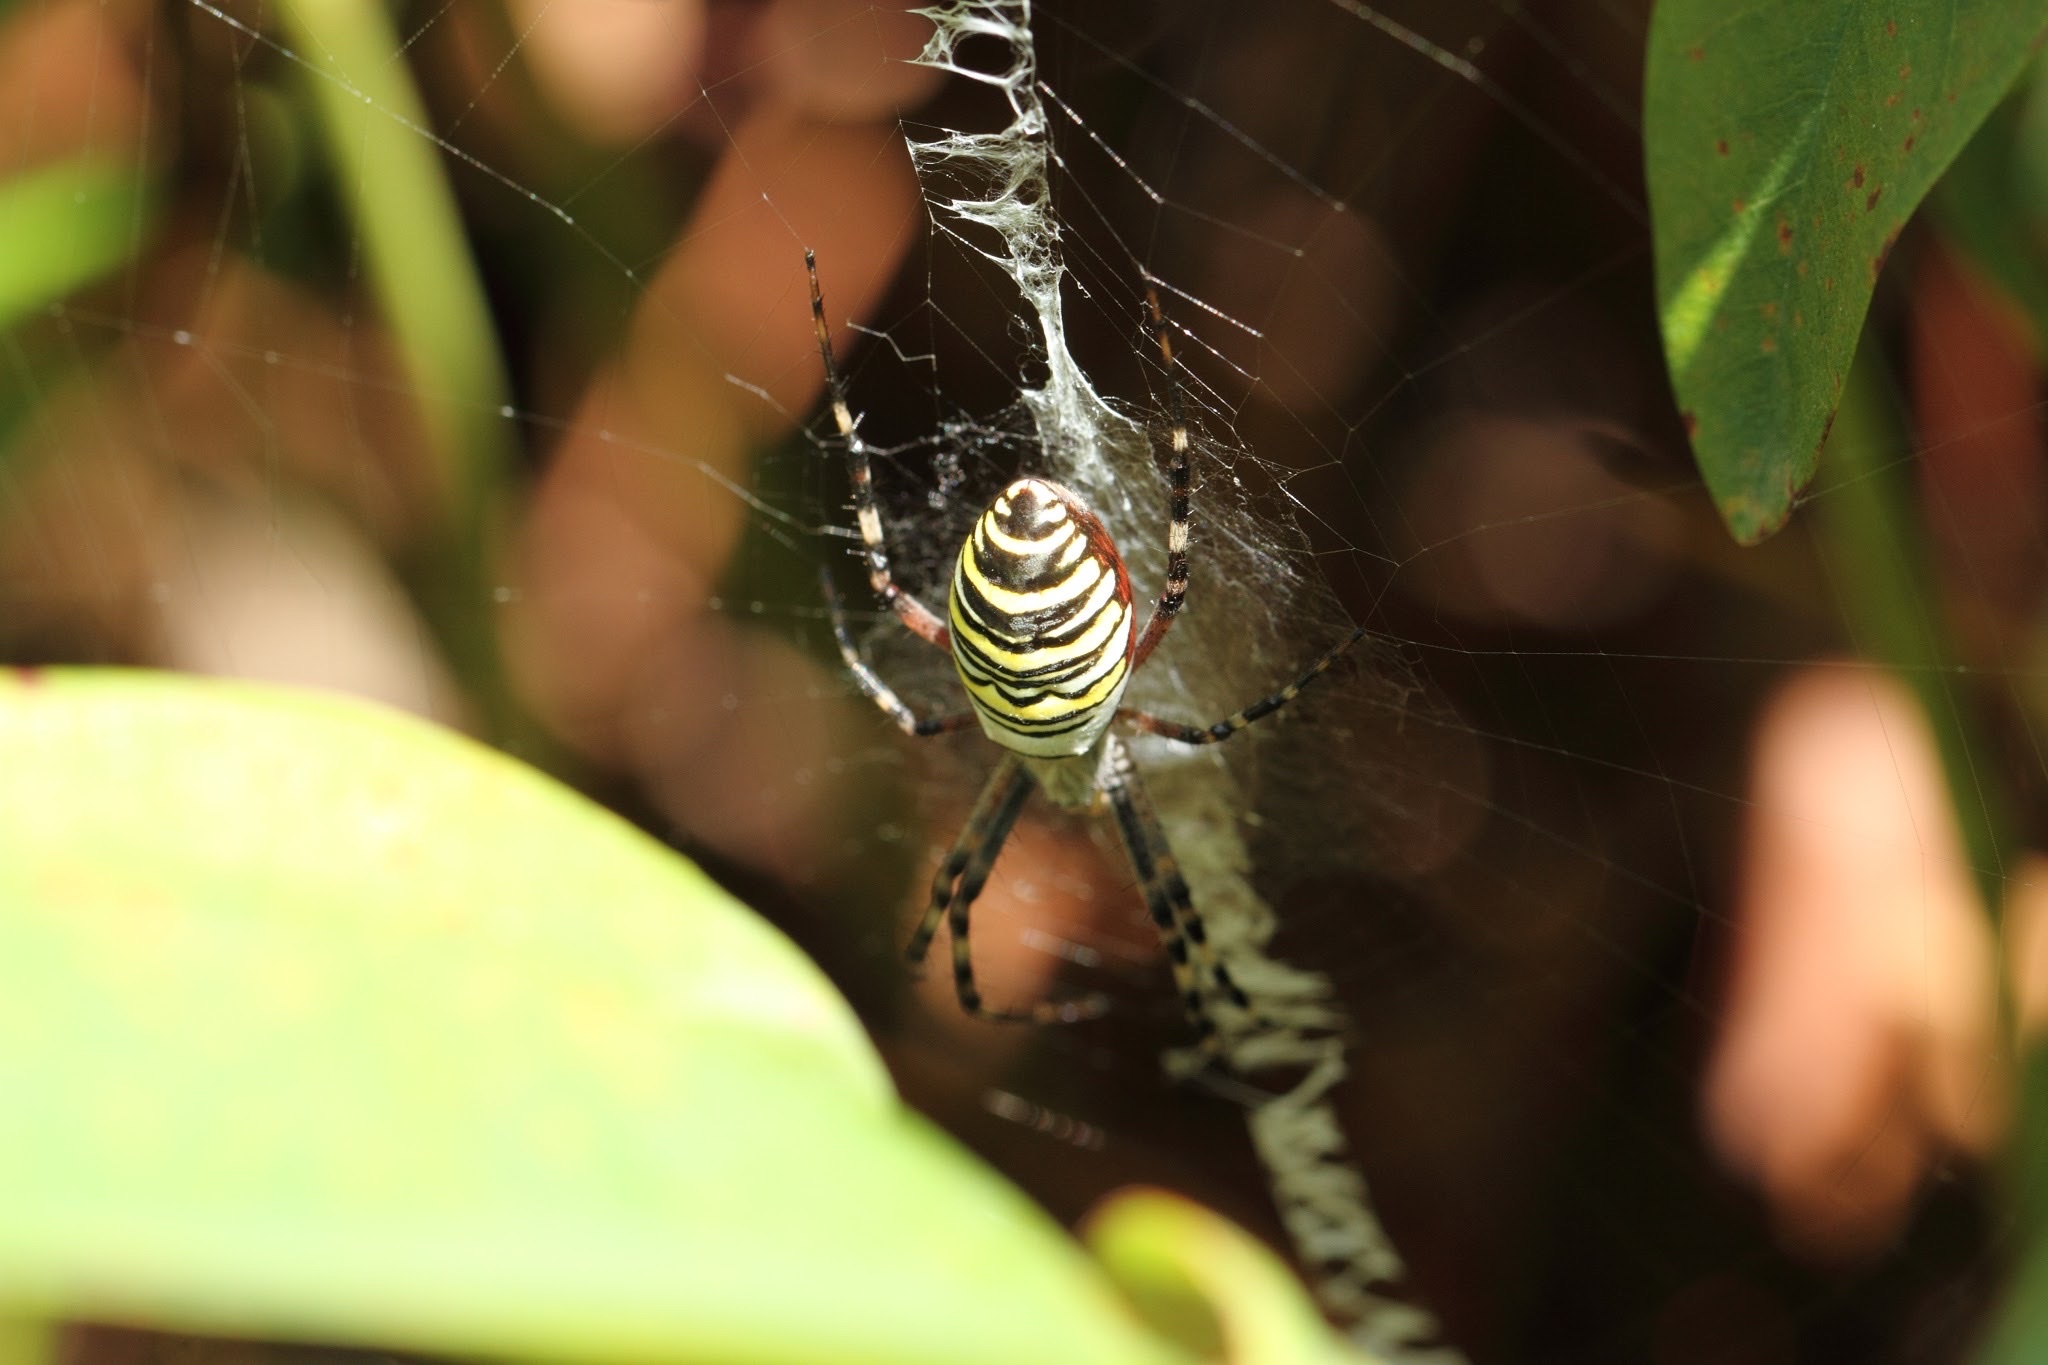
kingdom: Animalia
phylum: Arthropoda
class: Arachnida
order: Araneae
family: Araneidae
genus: Argiope
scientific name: Argiope bruennichi
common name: Wasp spider
